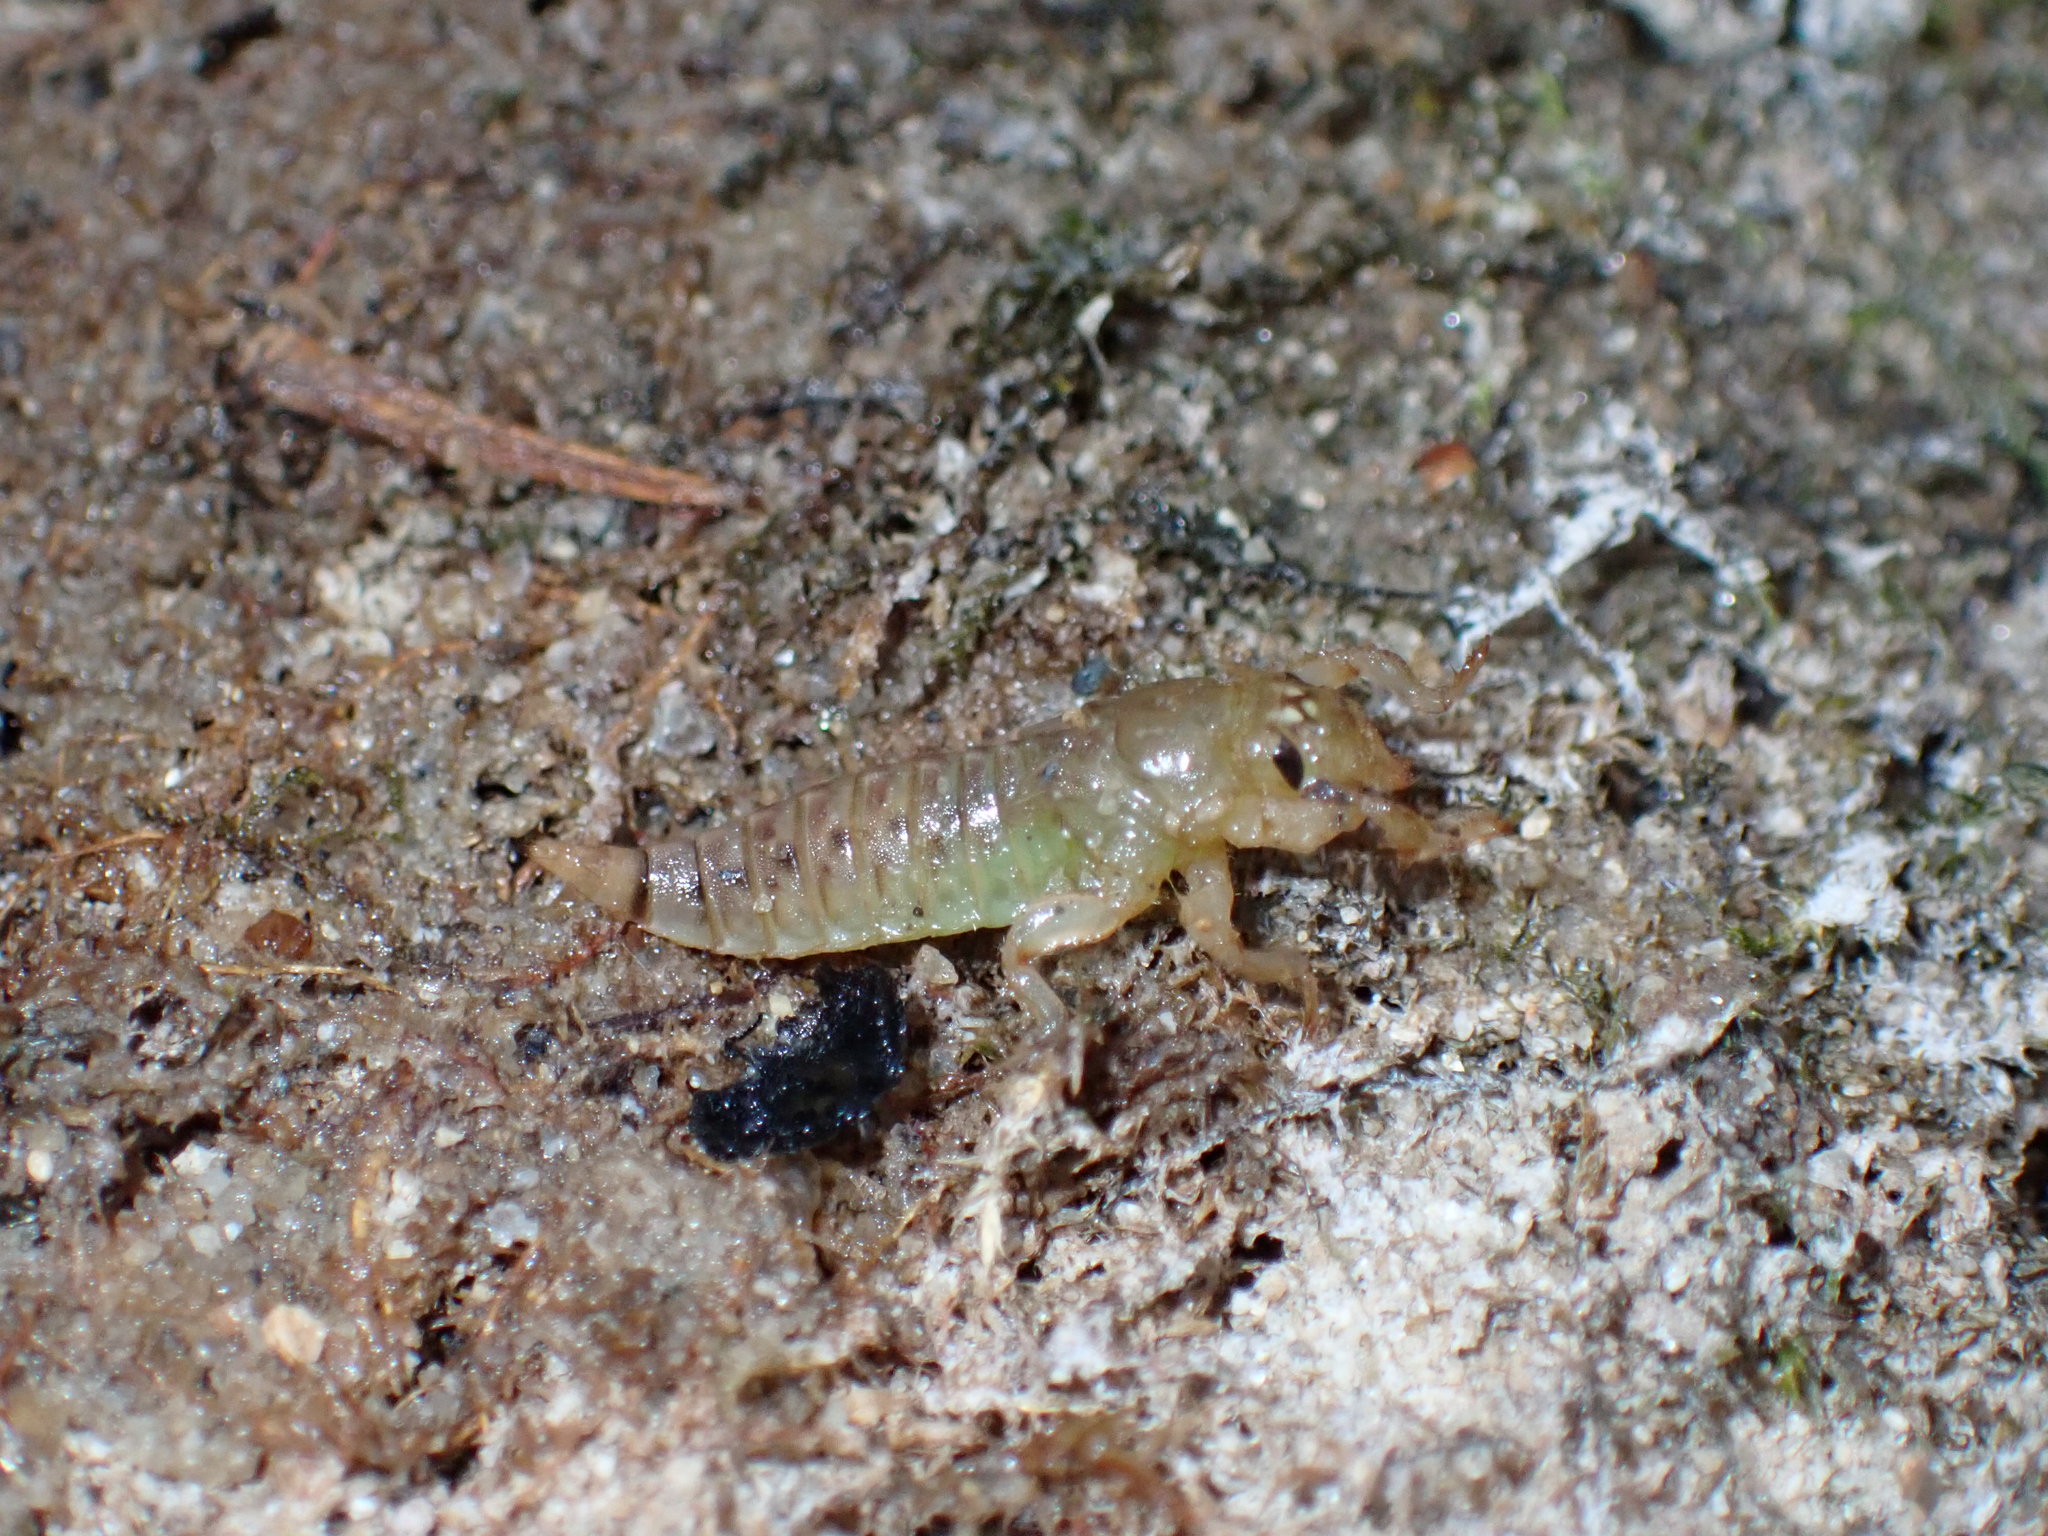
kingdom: Animalia
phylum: Arthropoda
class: Insecta
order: Odonata
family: Gomphidae
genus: Progomphus
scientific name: Progomphus obscurus
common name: Common sanddragon
